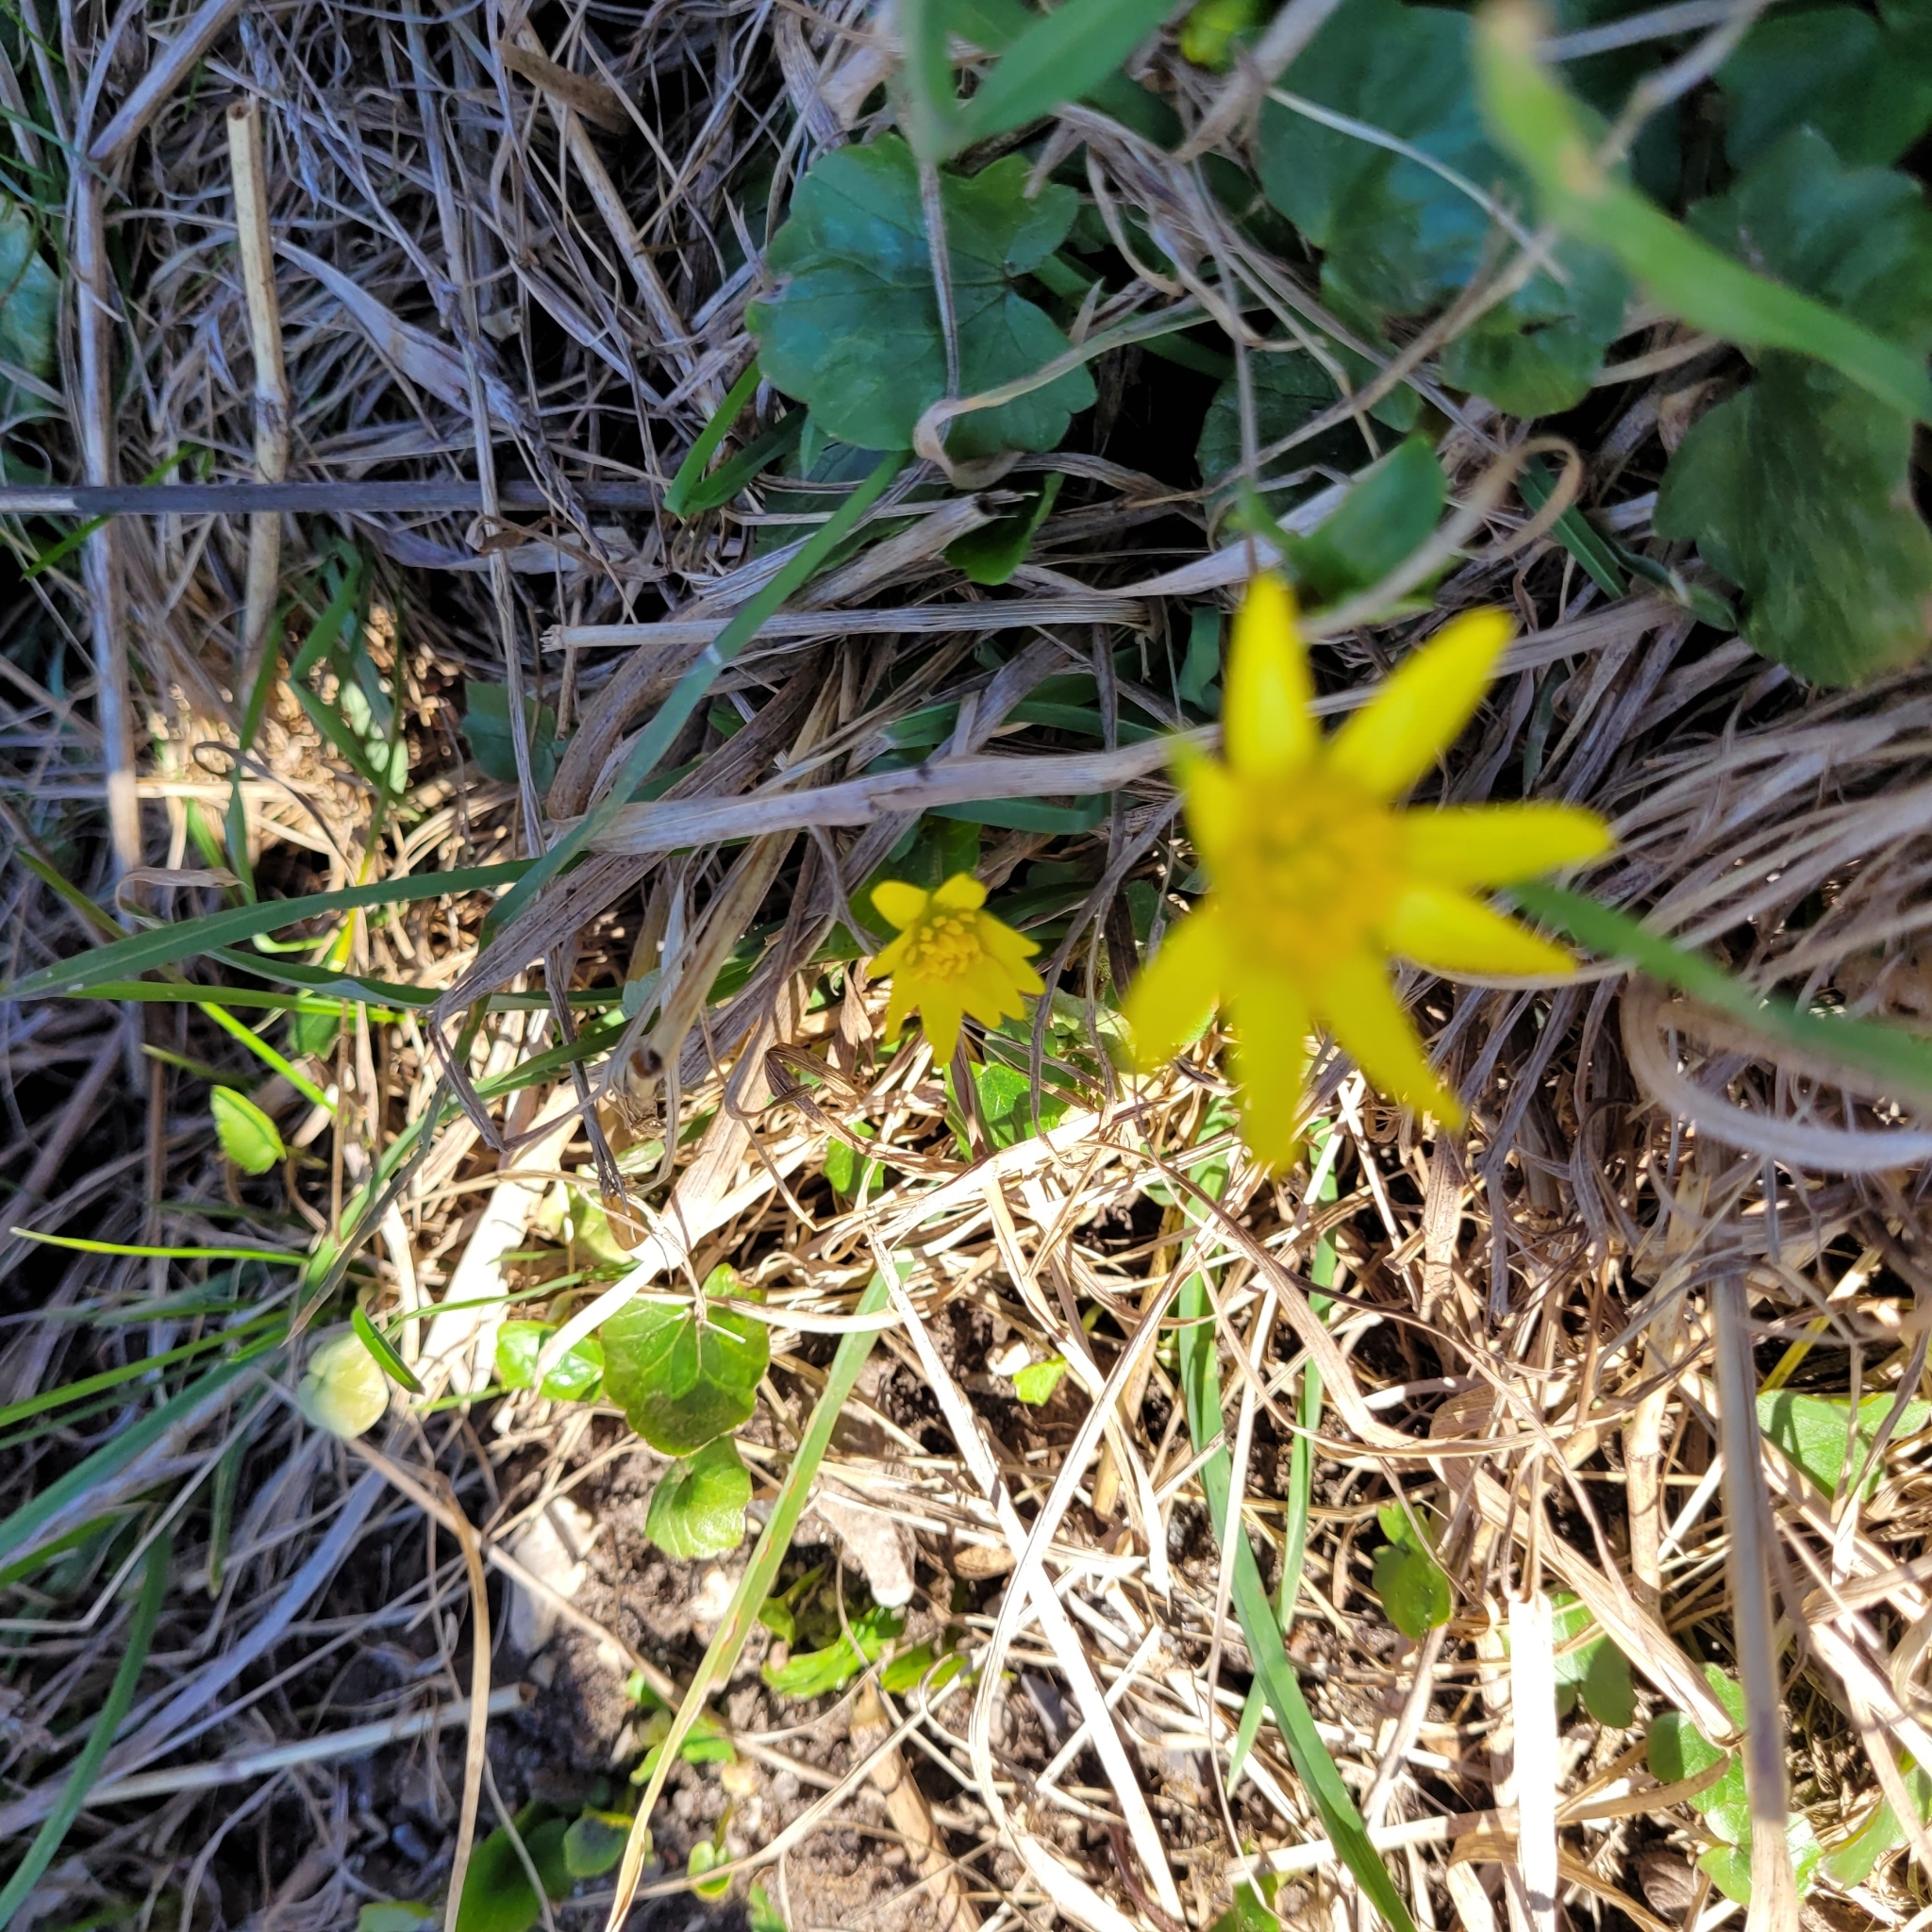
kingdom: Plantae
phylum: Tracheophyta
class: Magnoliopsida
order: Ranunculales
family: Ranunculaceae
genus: Ficaria
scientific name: Ficaria verna
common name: Lesser celandine
